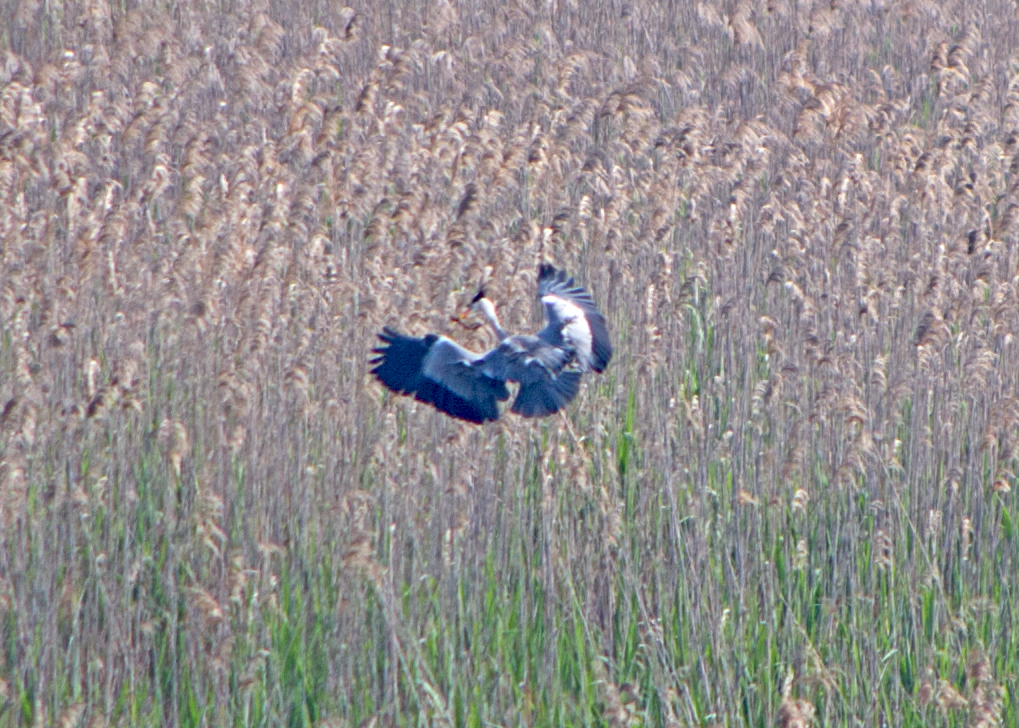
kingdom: Animalia
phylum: Chordata
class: Aves
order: Pelecaniformes
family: Ardeidae
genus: Ardea
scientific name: Ardea cinerea
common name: Grey heron
